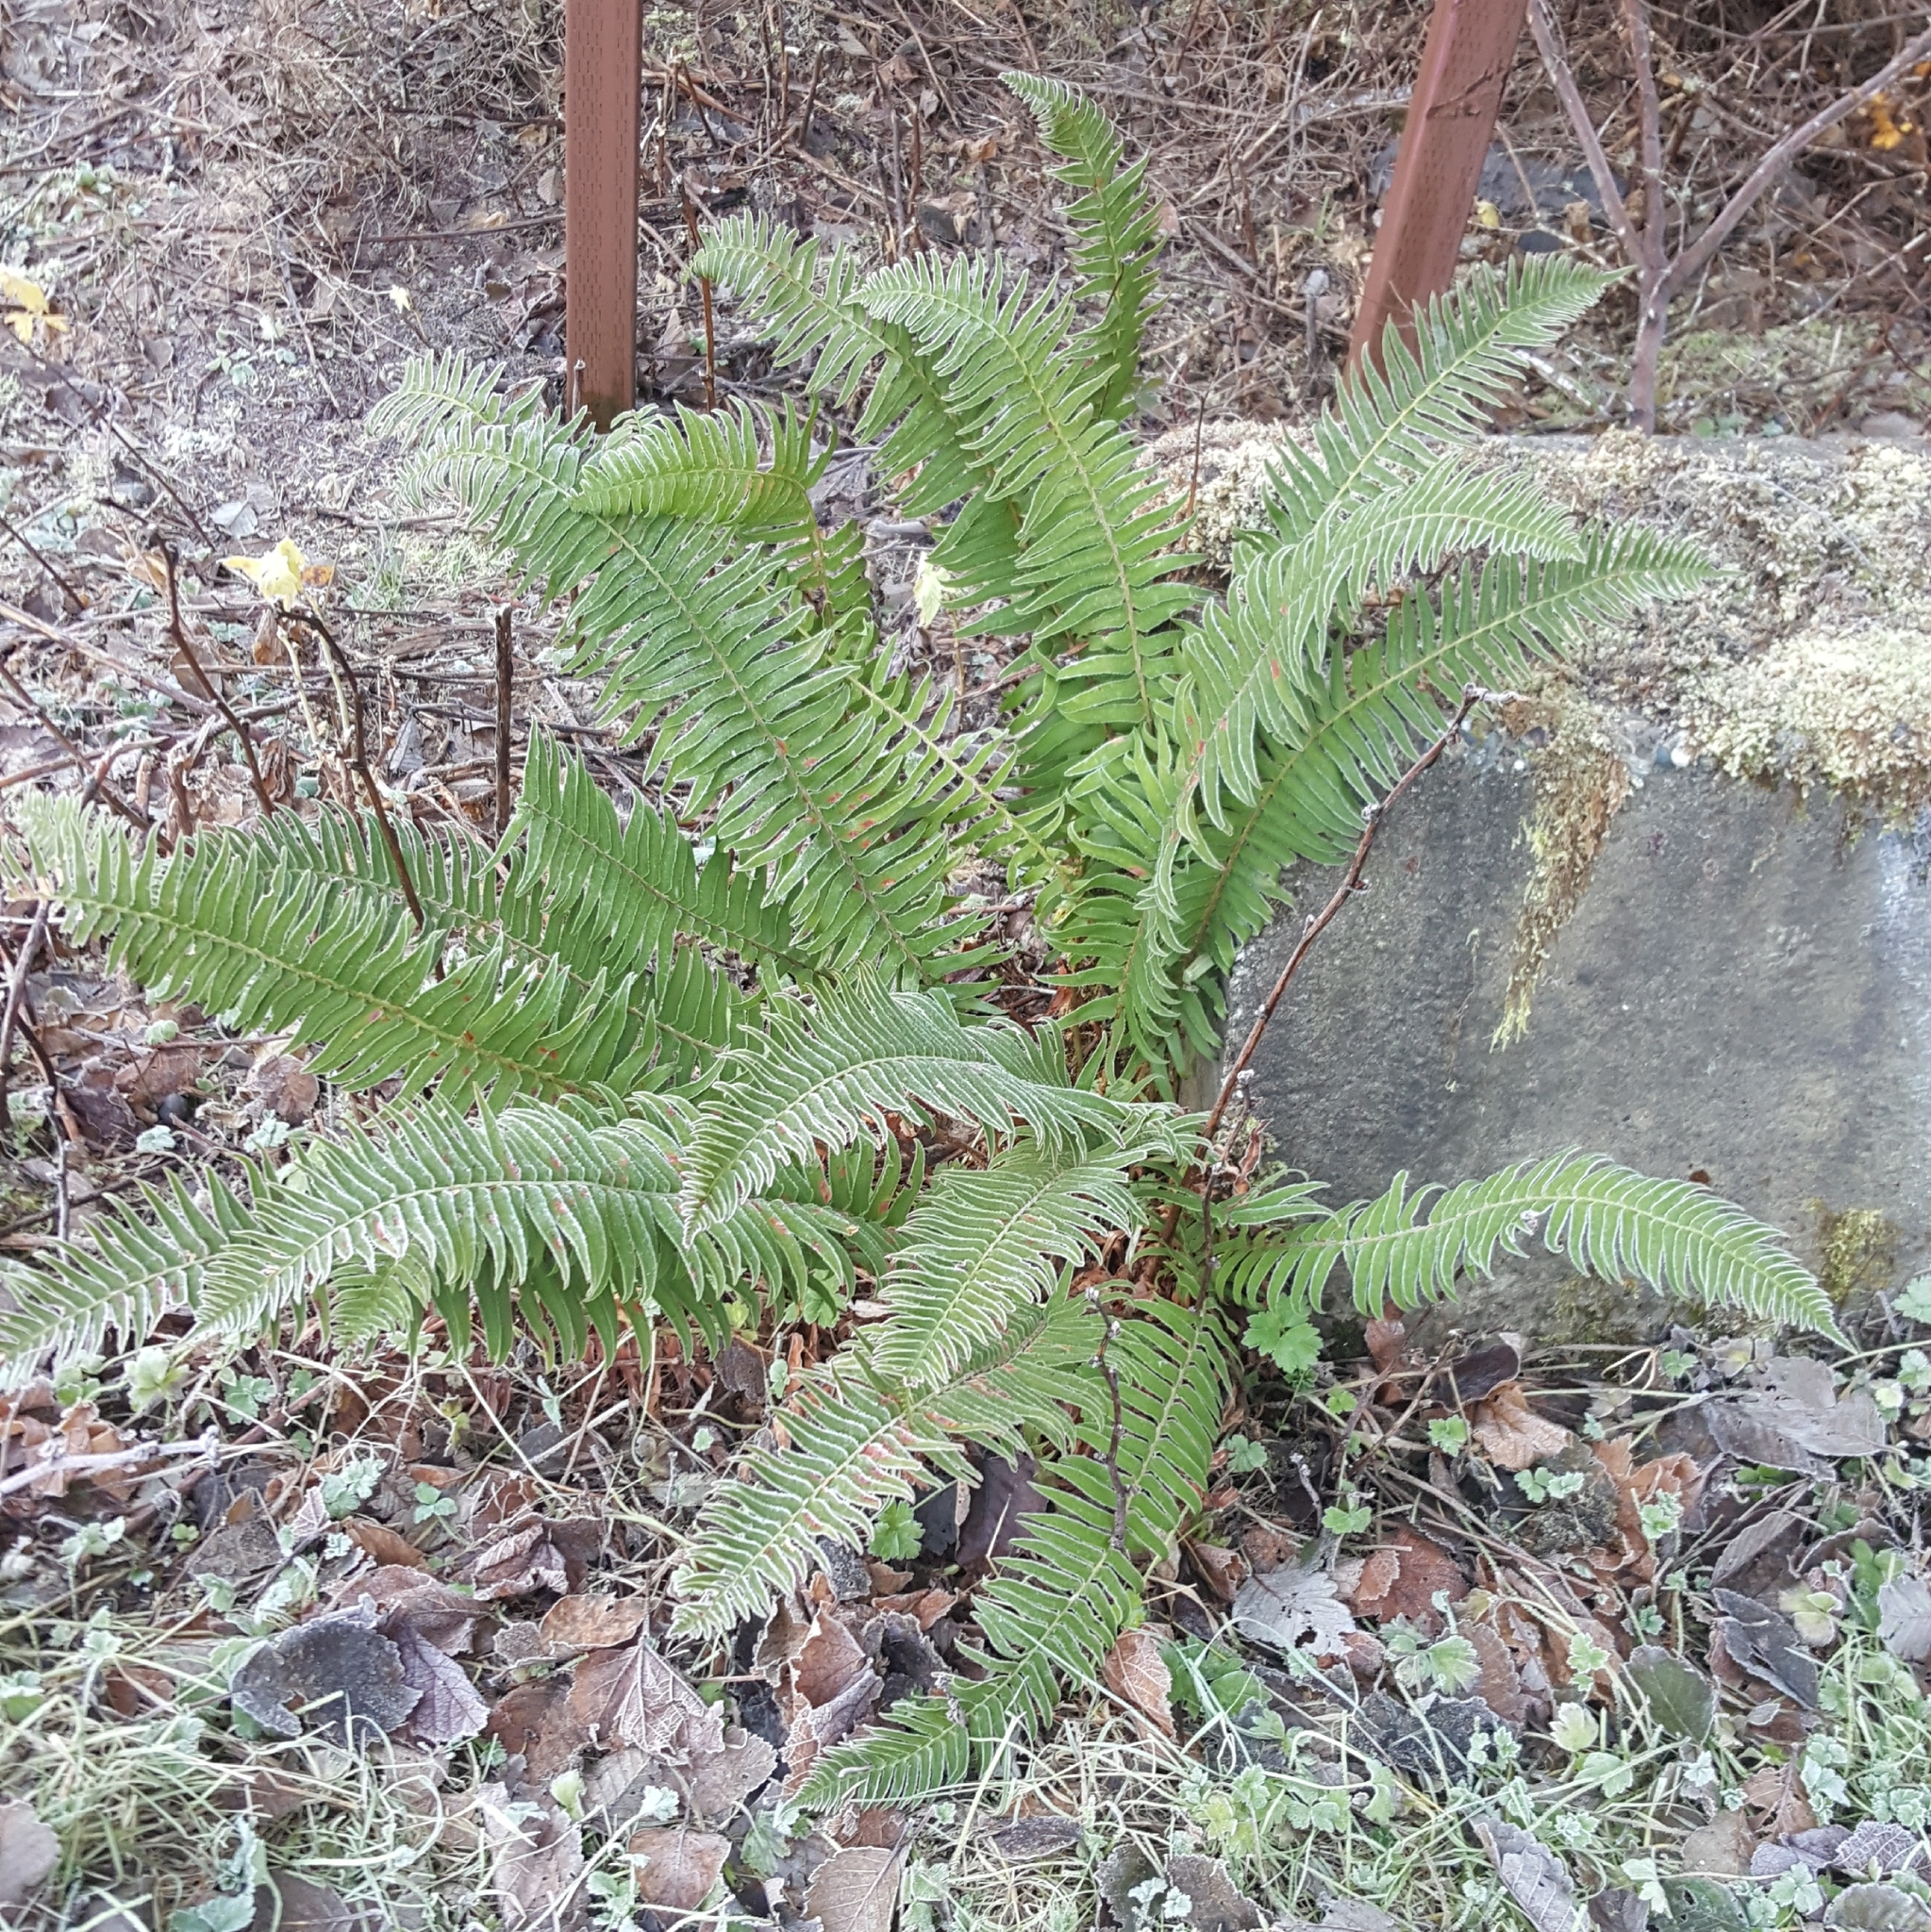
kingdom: Plantae
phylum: Tracheophyta
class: Polypodiopsida
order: Polypodiales
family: Dryopteridaceae
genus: Polystichum
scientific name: Polystichum munitum
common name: Western sword-fern
